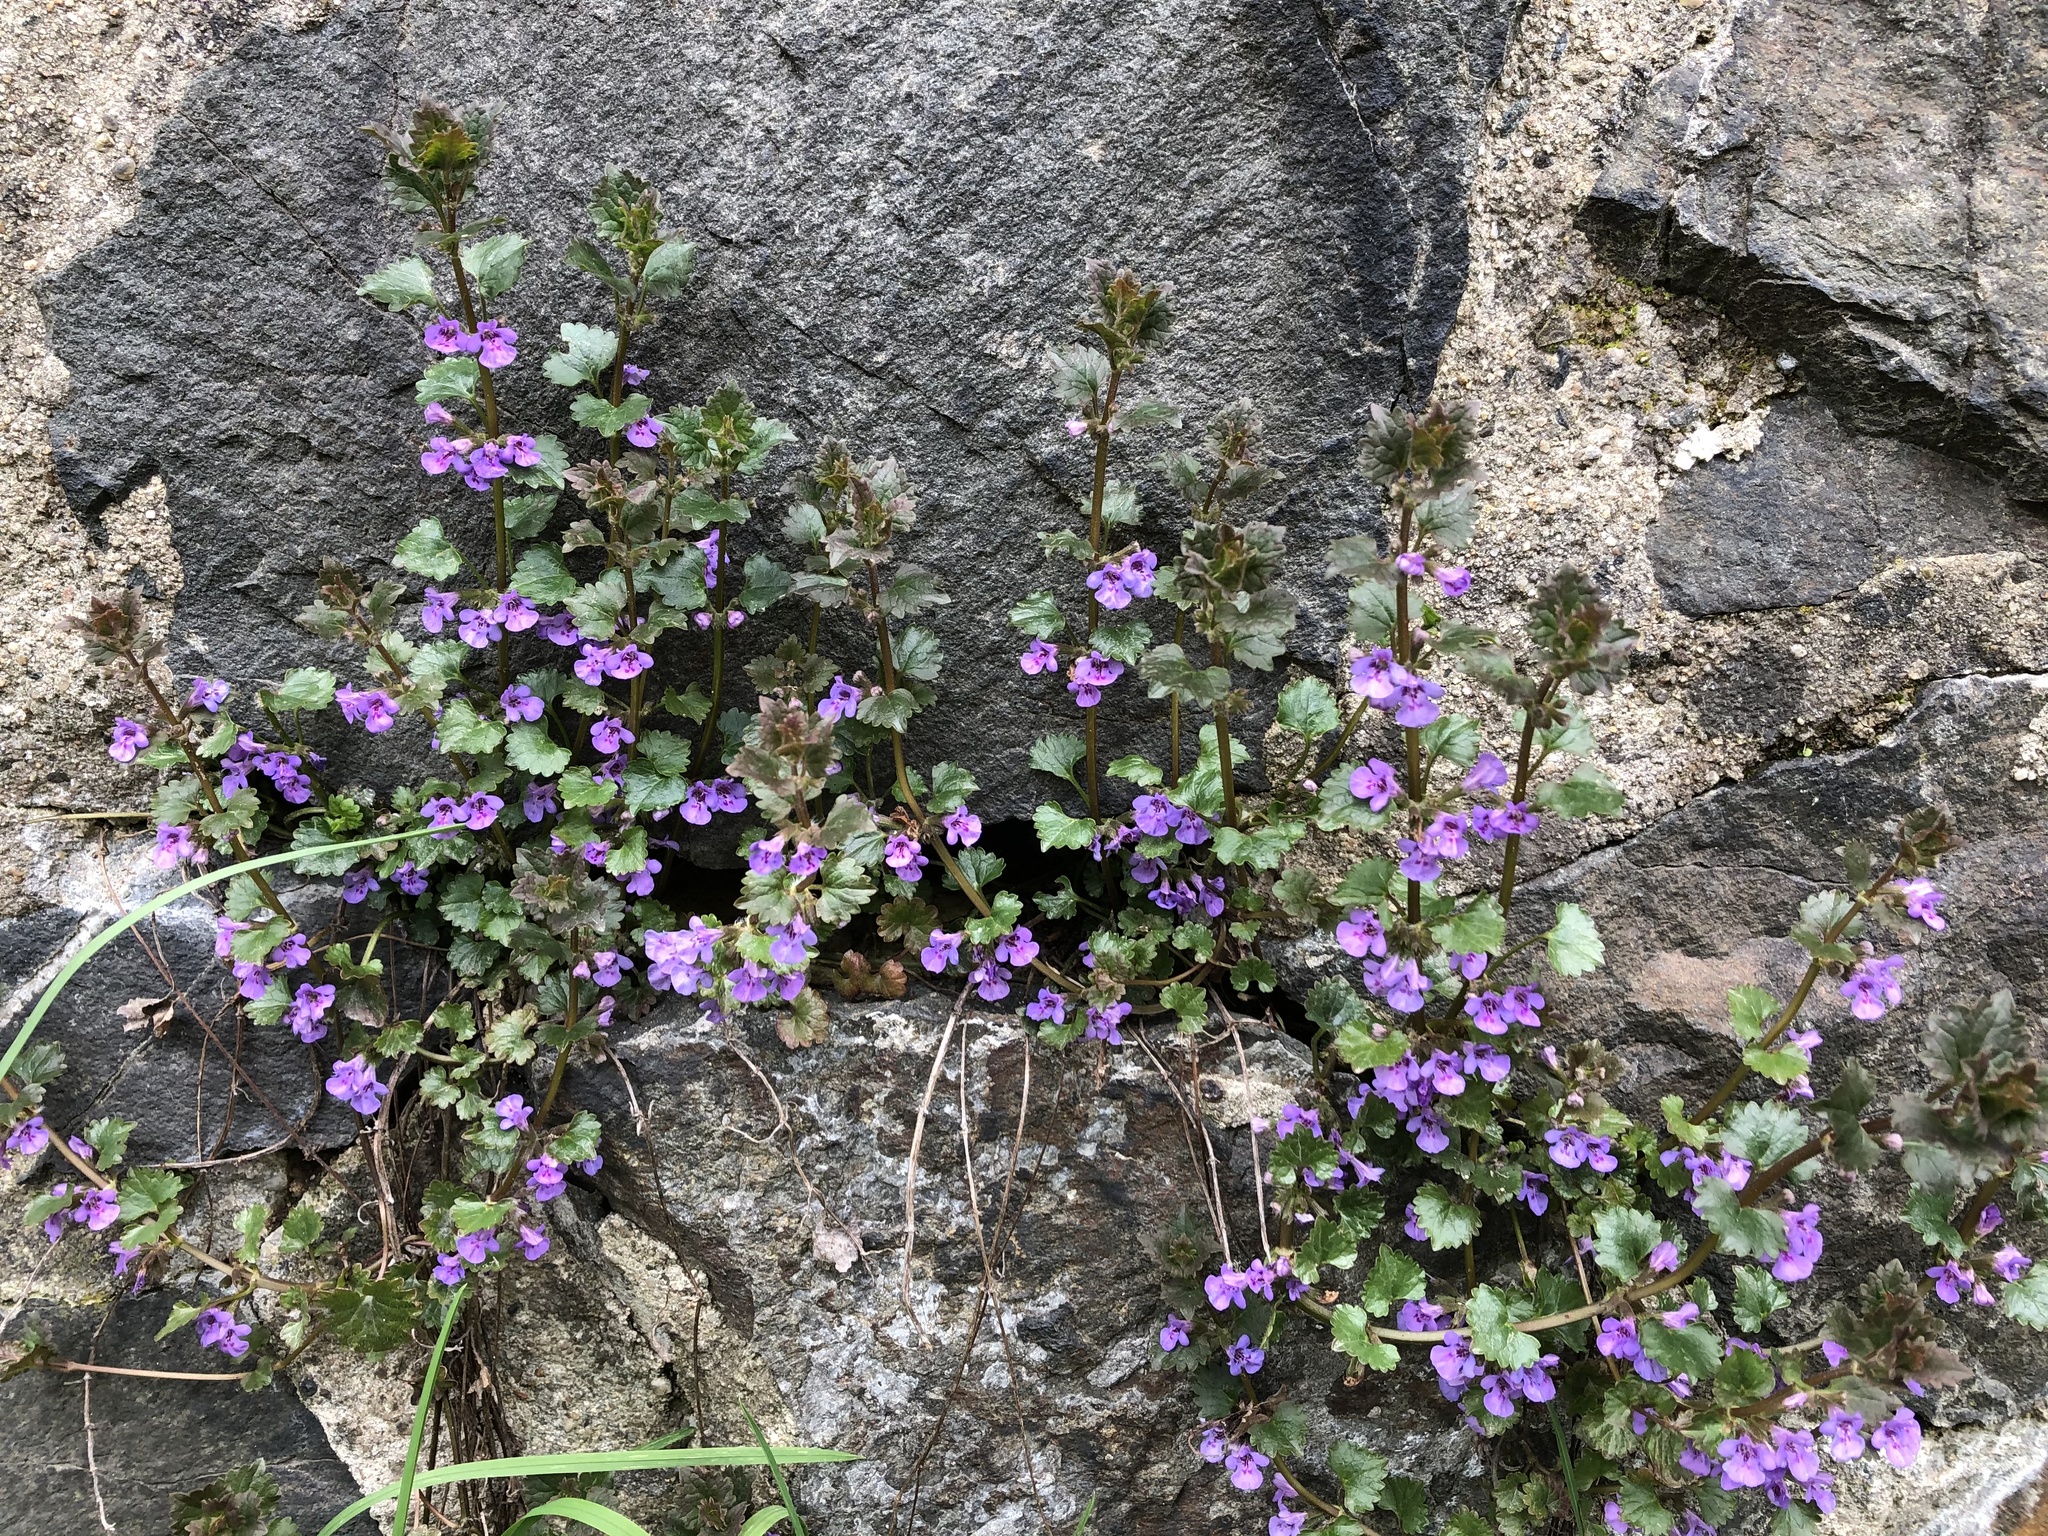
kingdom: Plantae
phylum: Tracheophyta
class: Magnoliopsida
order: Lamiales
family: Lamiaceae
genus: Glechoma
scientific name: Glechoma hederacea
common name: Ground ivy
